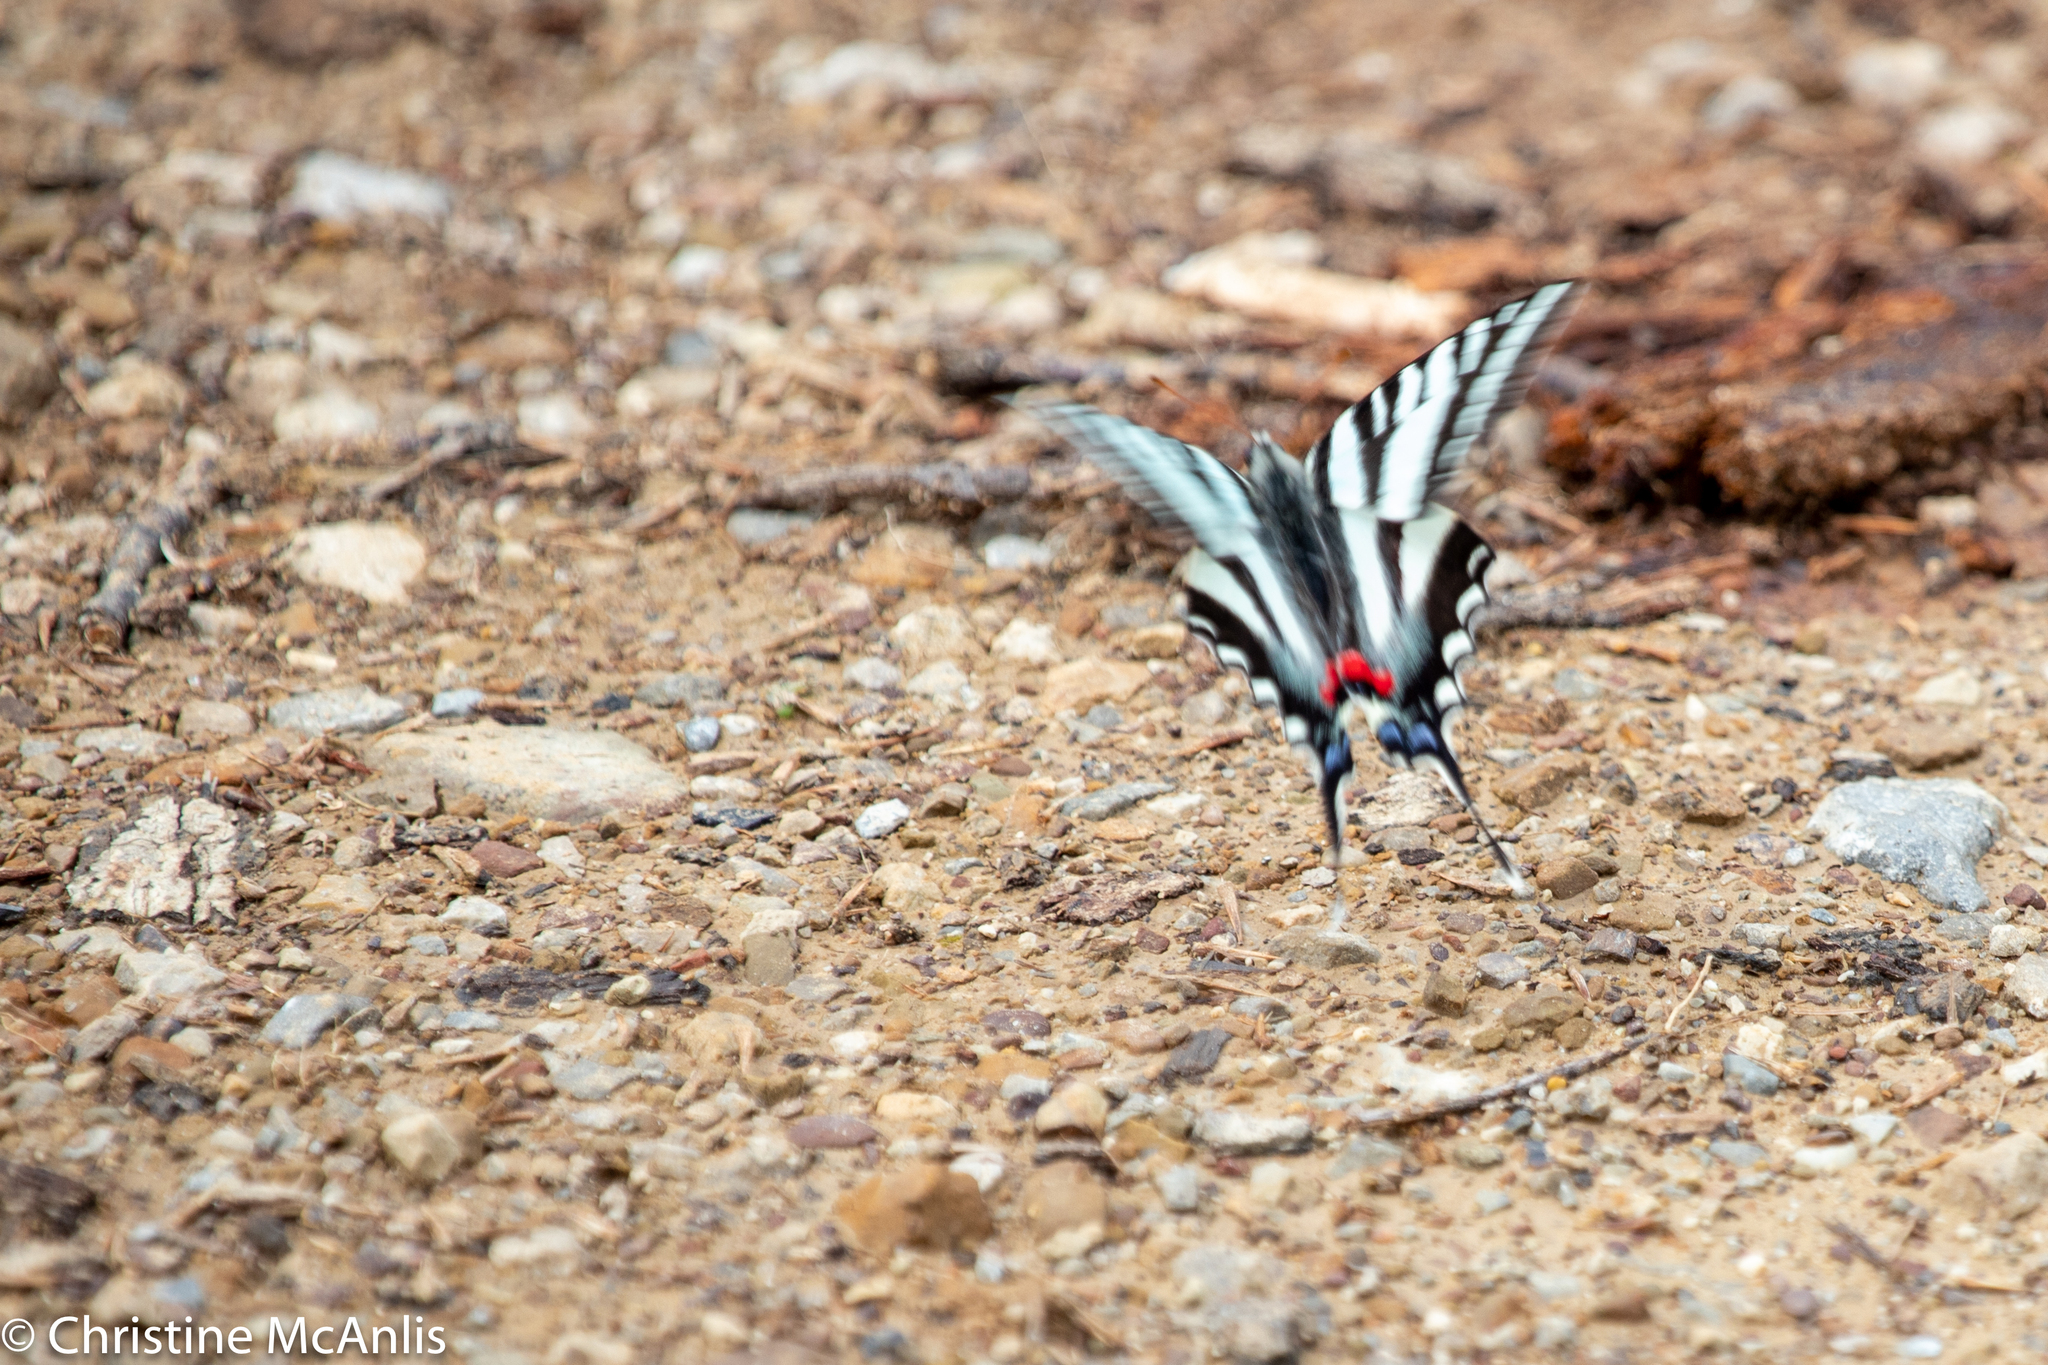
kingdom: Animalia
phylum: Arthropoda
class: Insecta
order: Lepidoptera
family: Papilionidae
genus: Protographium
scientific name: Protographium marcellus
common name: Zebra swallowtail
